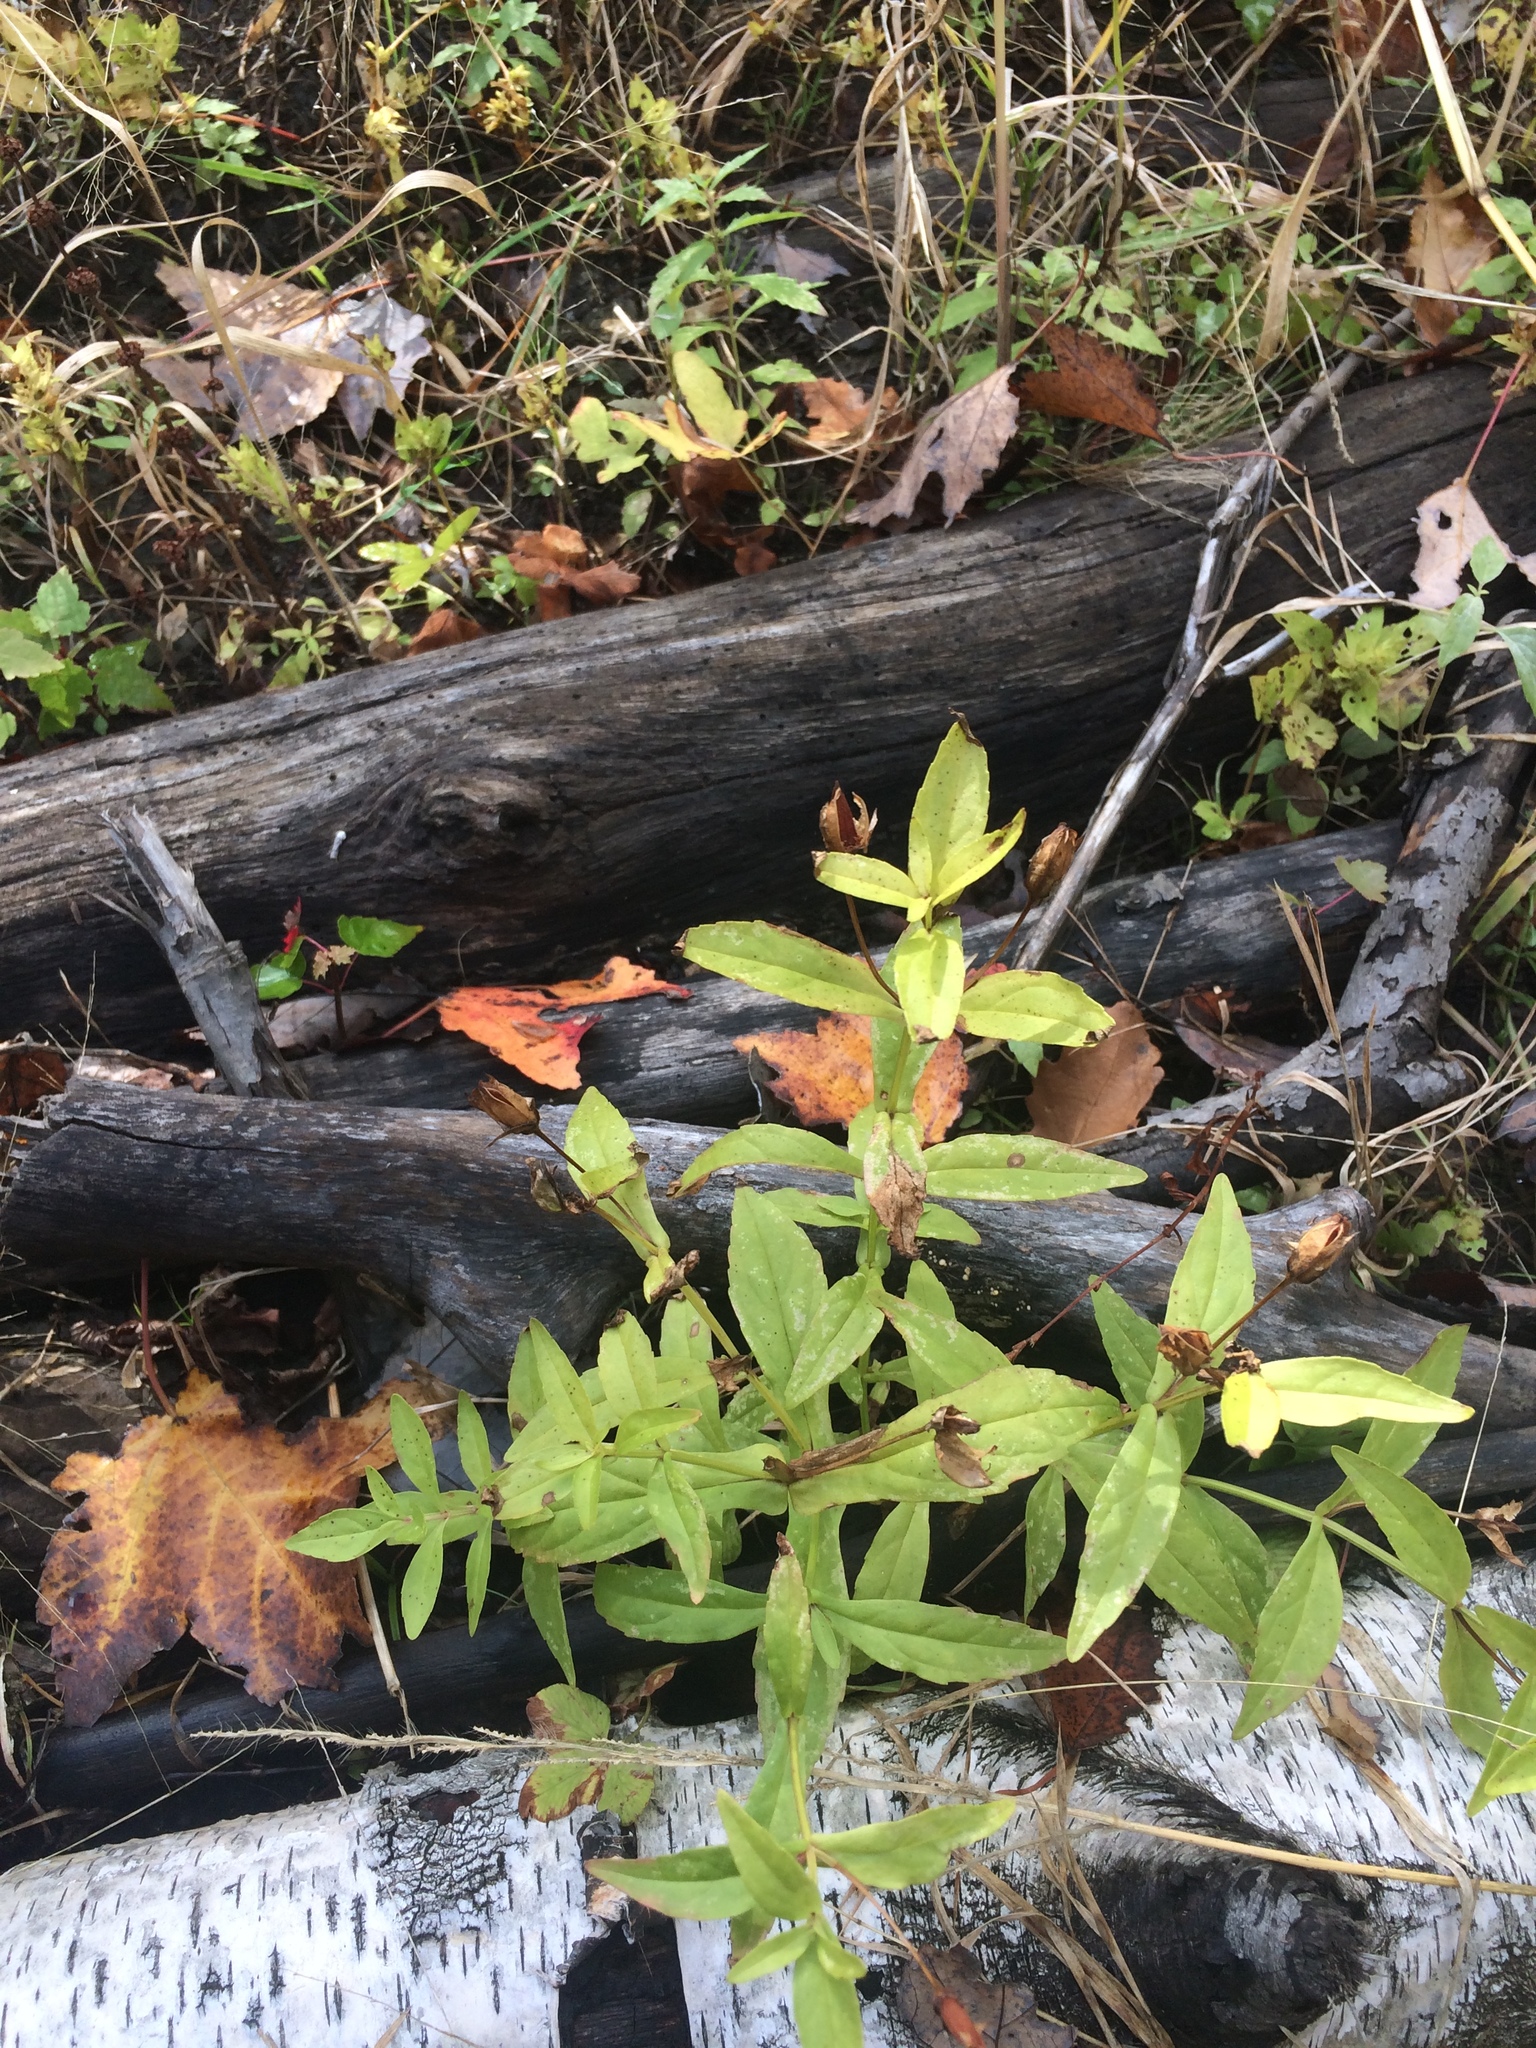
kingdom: Plantae
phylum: Tracheophyta
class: Magnoliopsida
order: Lamiales
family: Phrymaceae
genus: Mimulus
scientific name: Mimulus ringens
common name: Allegheny monkeyflower
